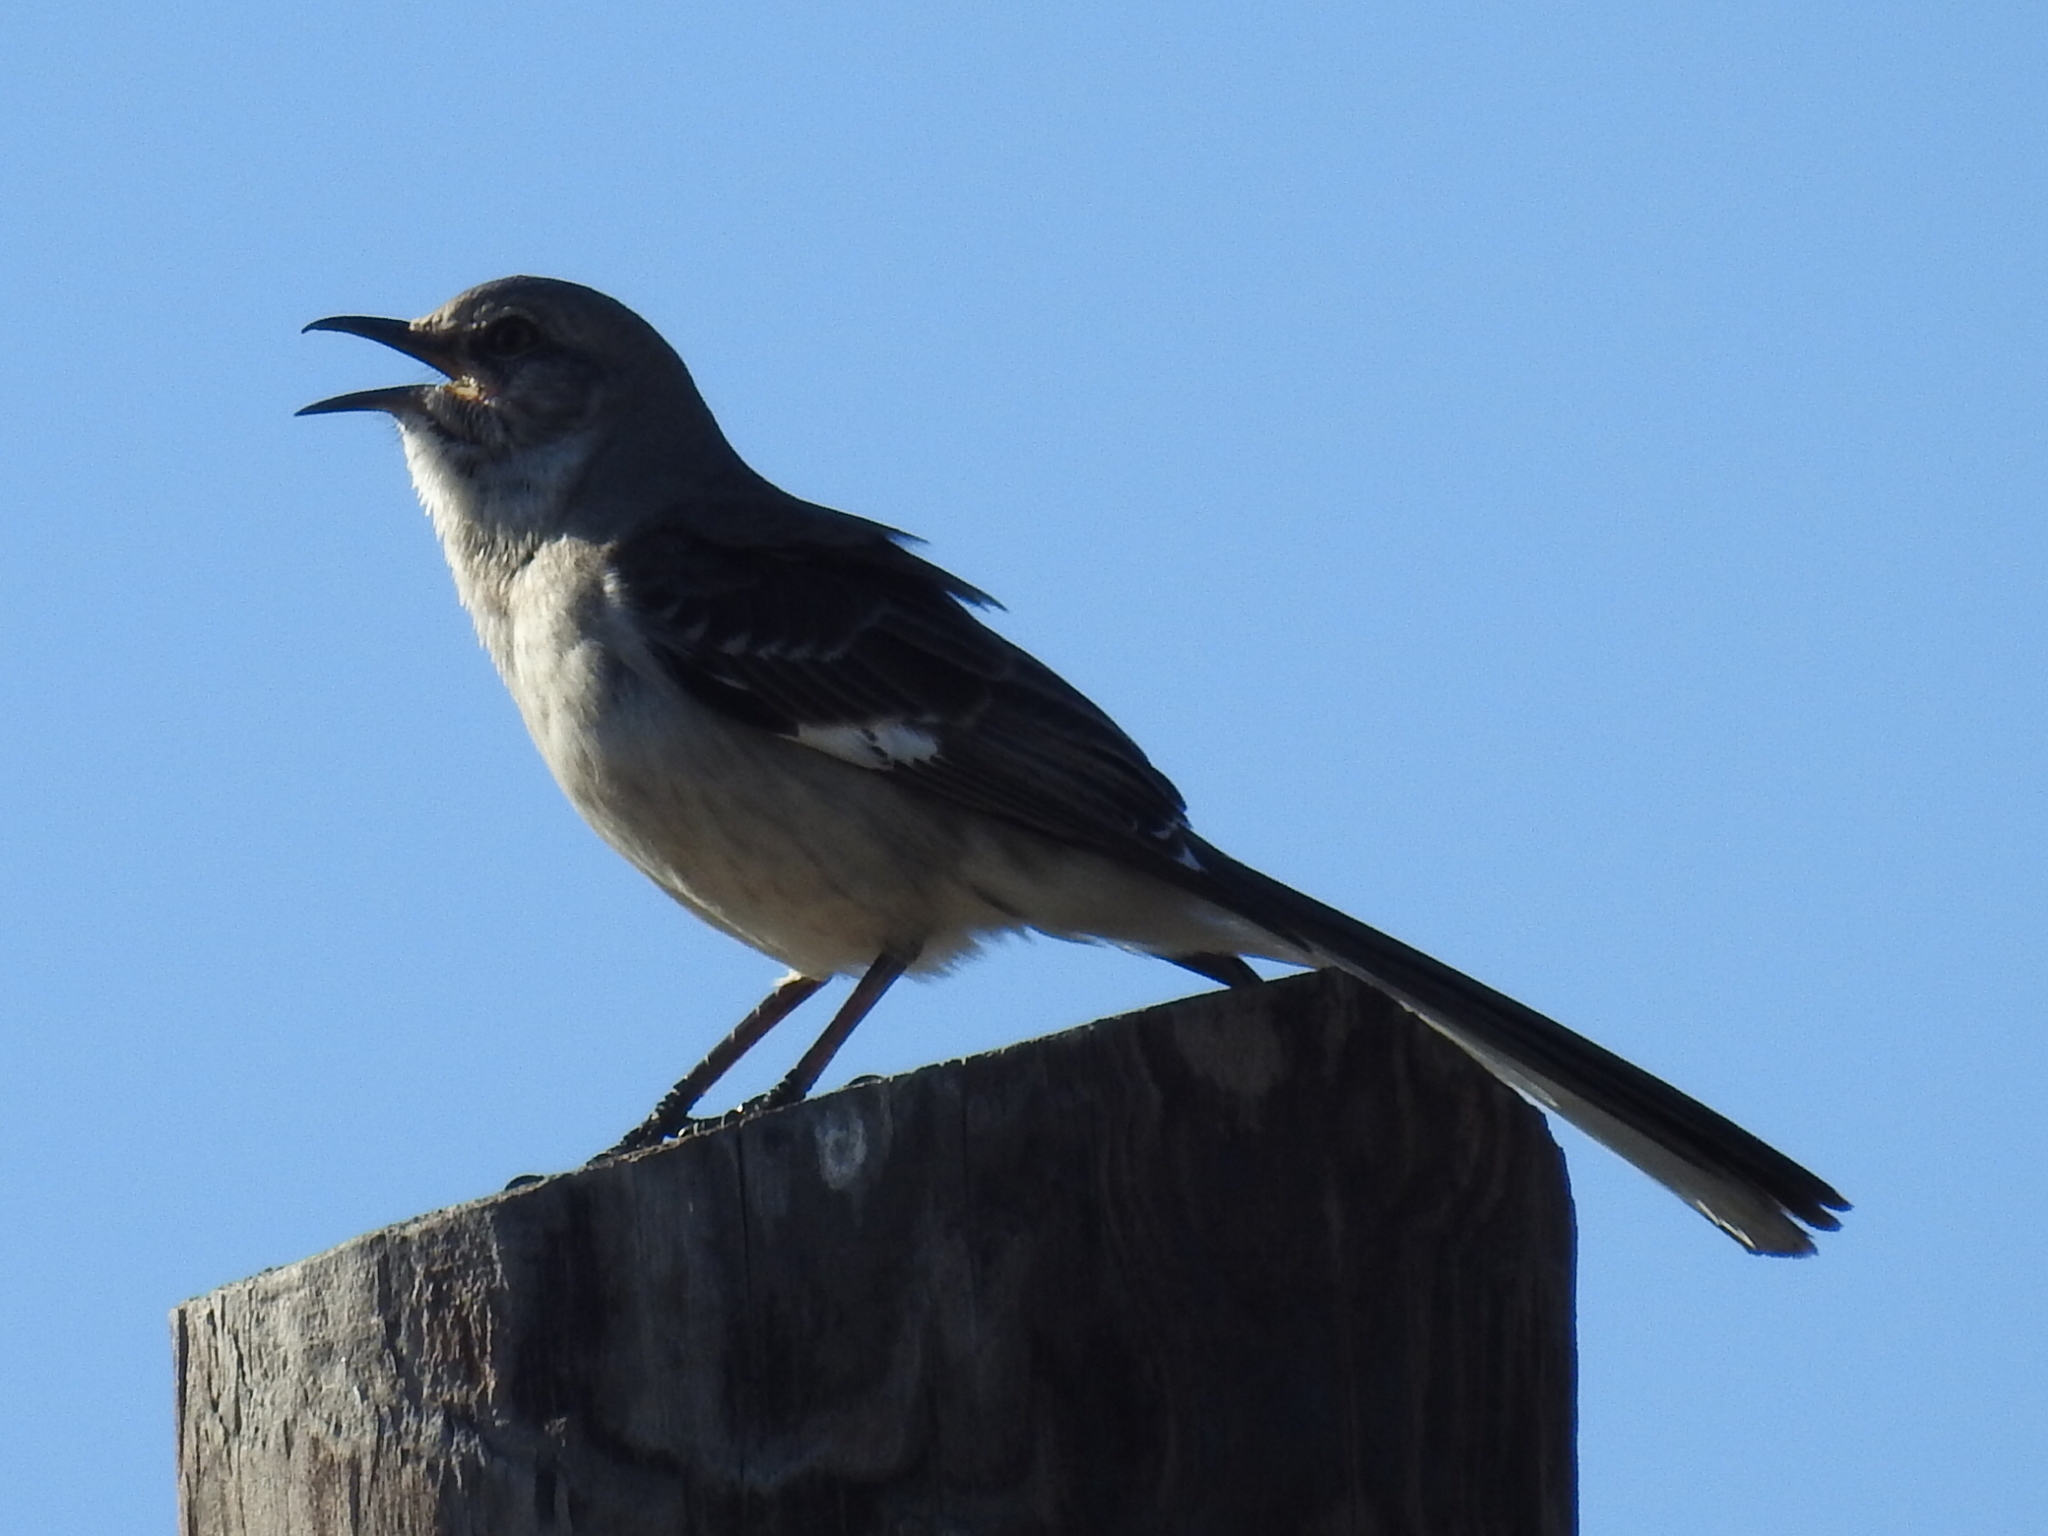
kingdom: Animalia
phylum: Chordata
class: Aves
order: Passeriformes
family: Mimidae
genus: Mimus
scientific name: Mimus polyglottos
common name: Northern mockingbird
